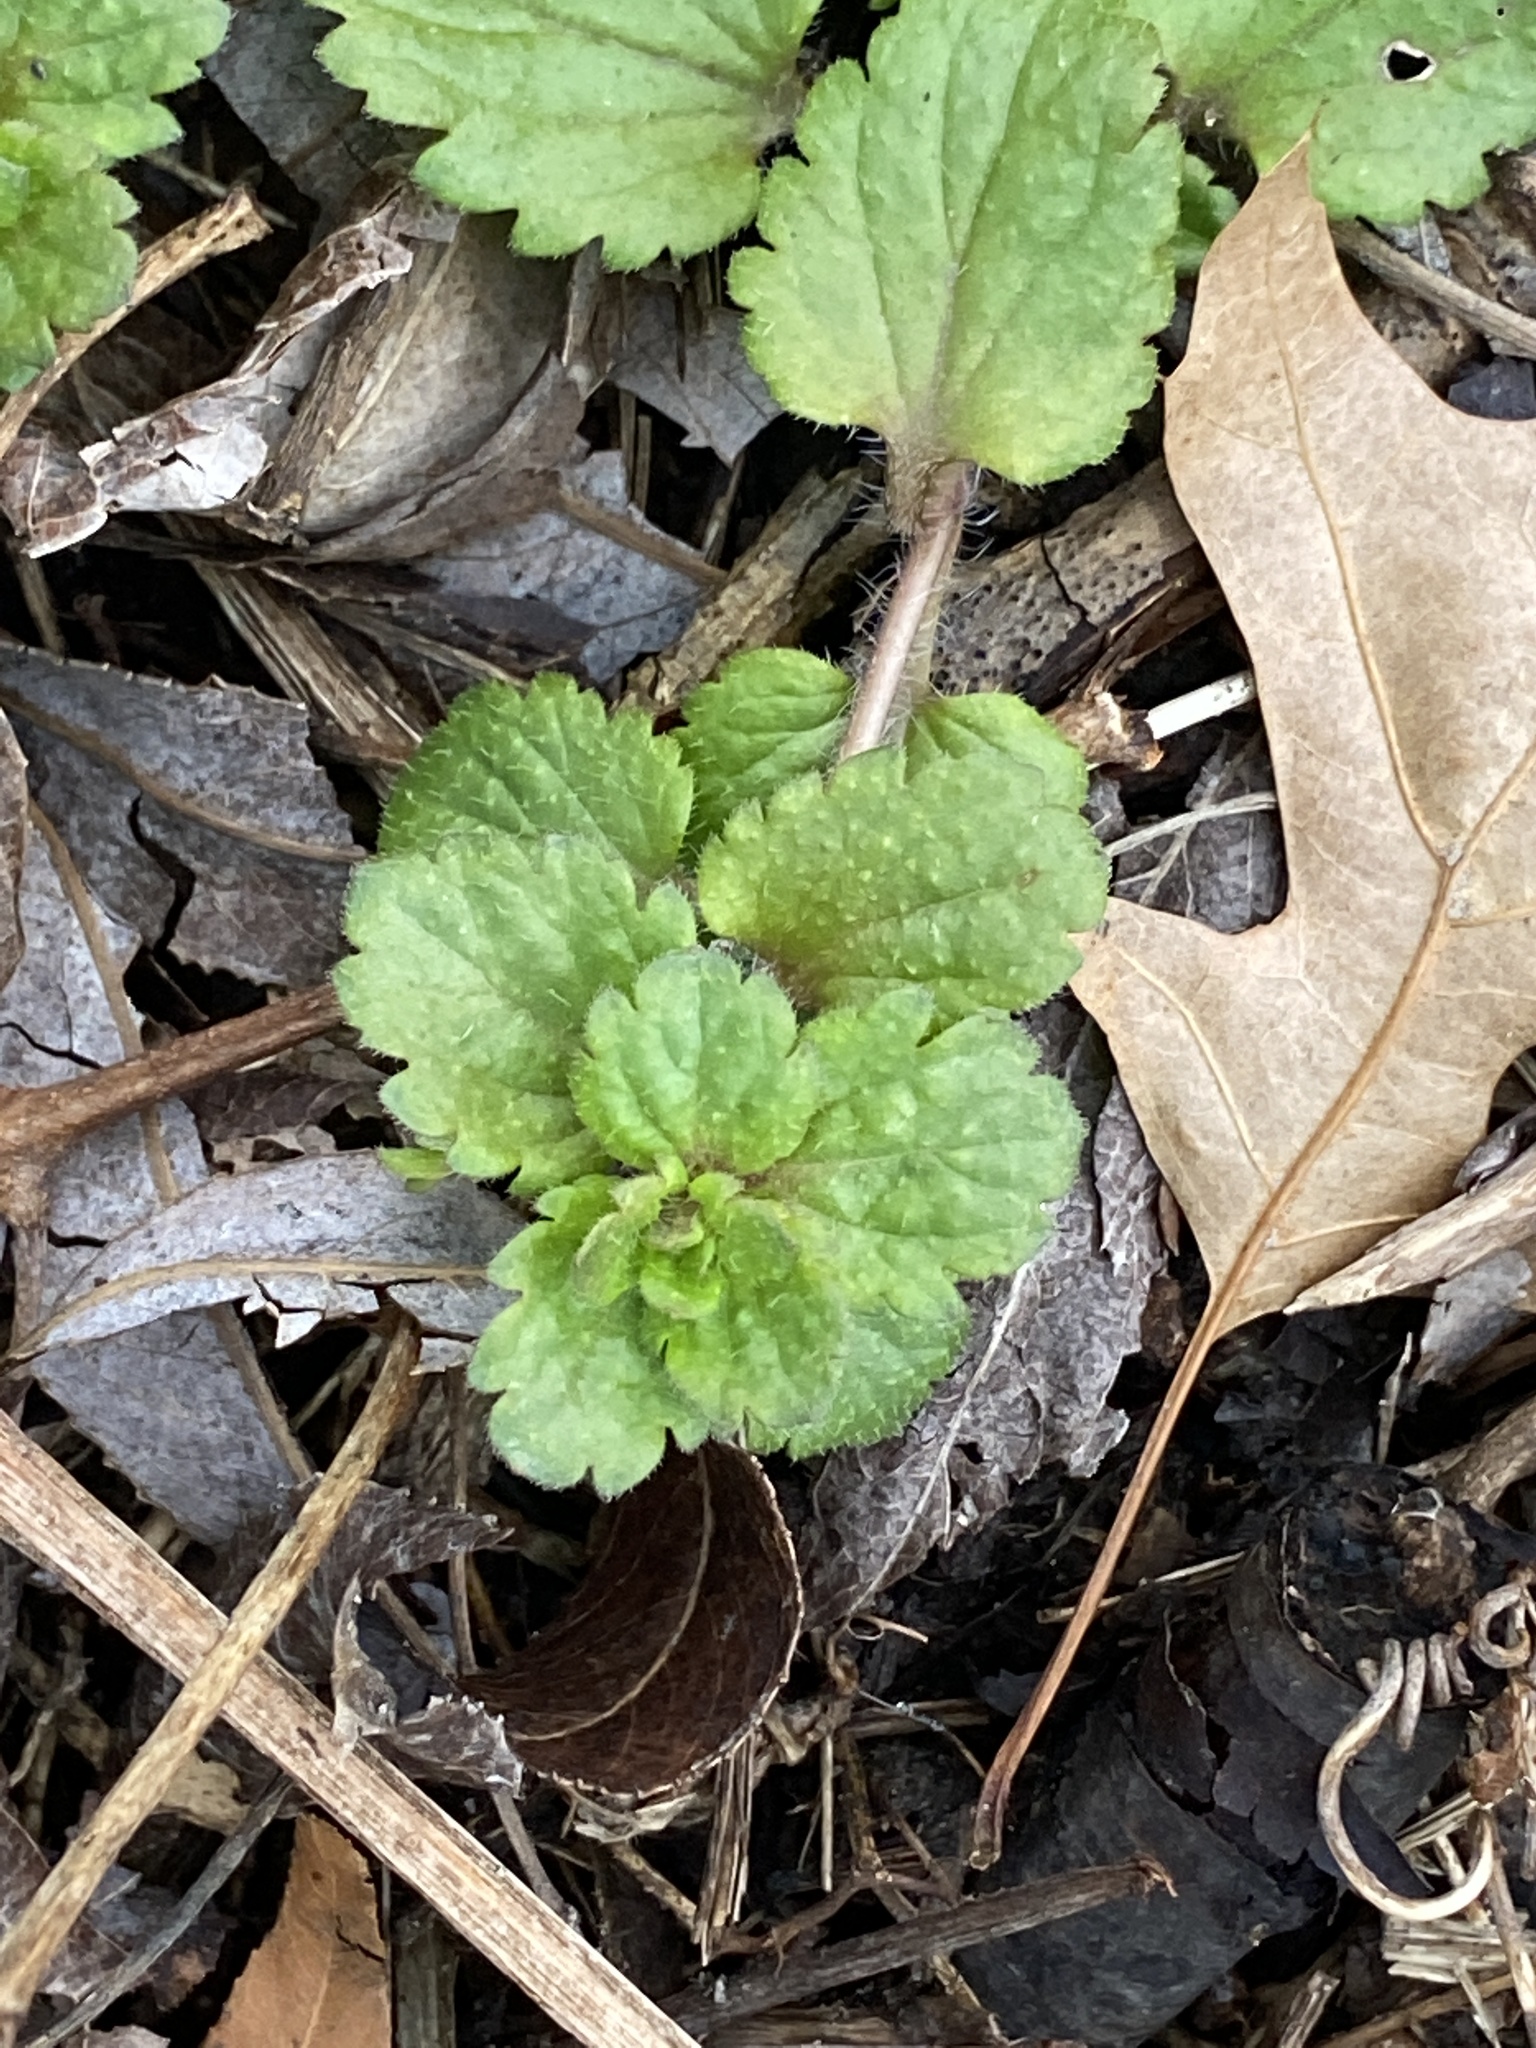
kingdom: Plantae
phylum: Tracheophyta
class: Magnoliopsida
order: Lamiales
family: Plantaginaceae
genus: Veronica
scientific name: Veronica persica
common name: Common field-speedwell
